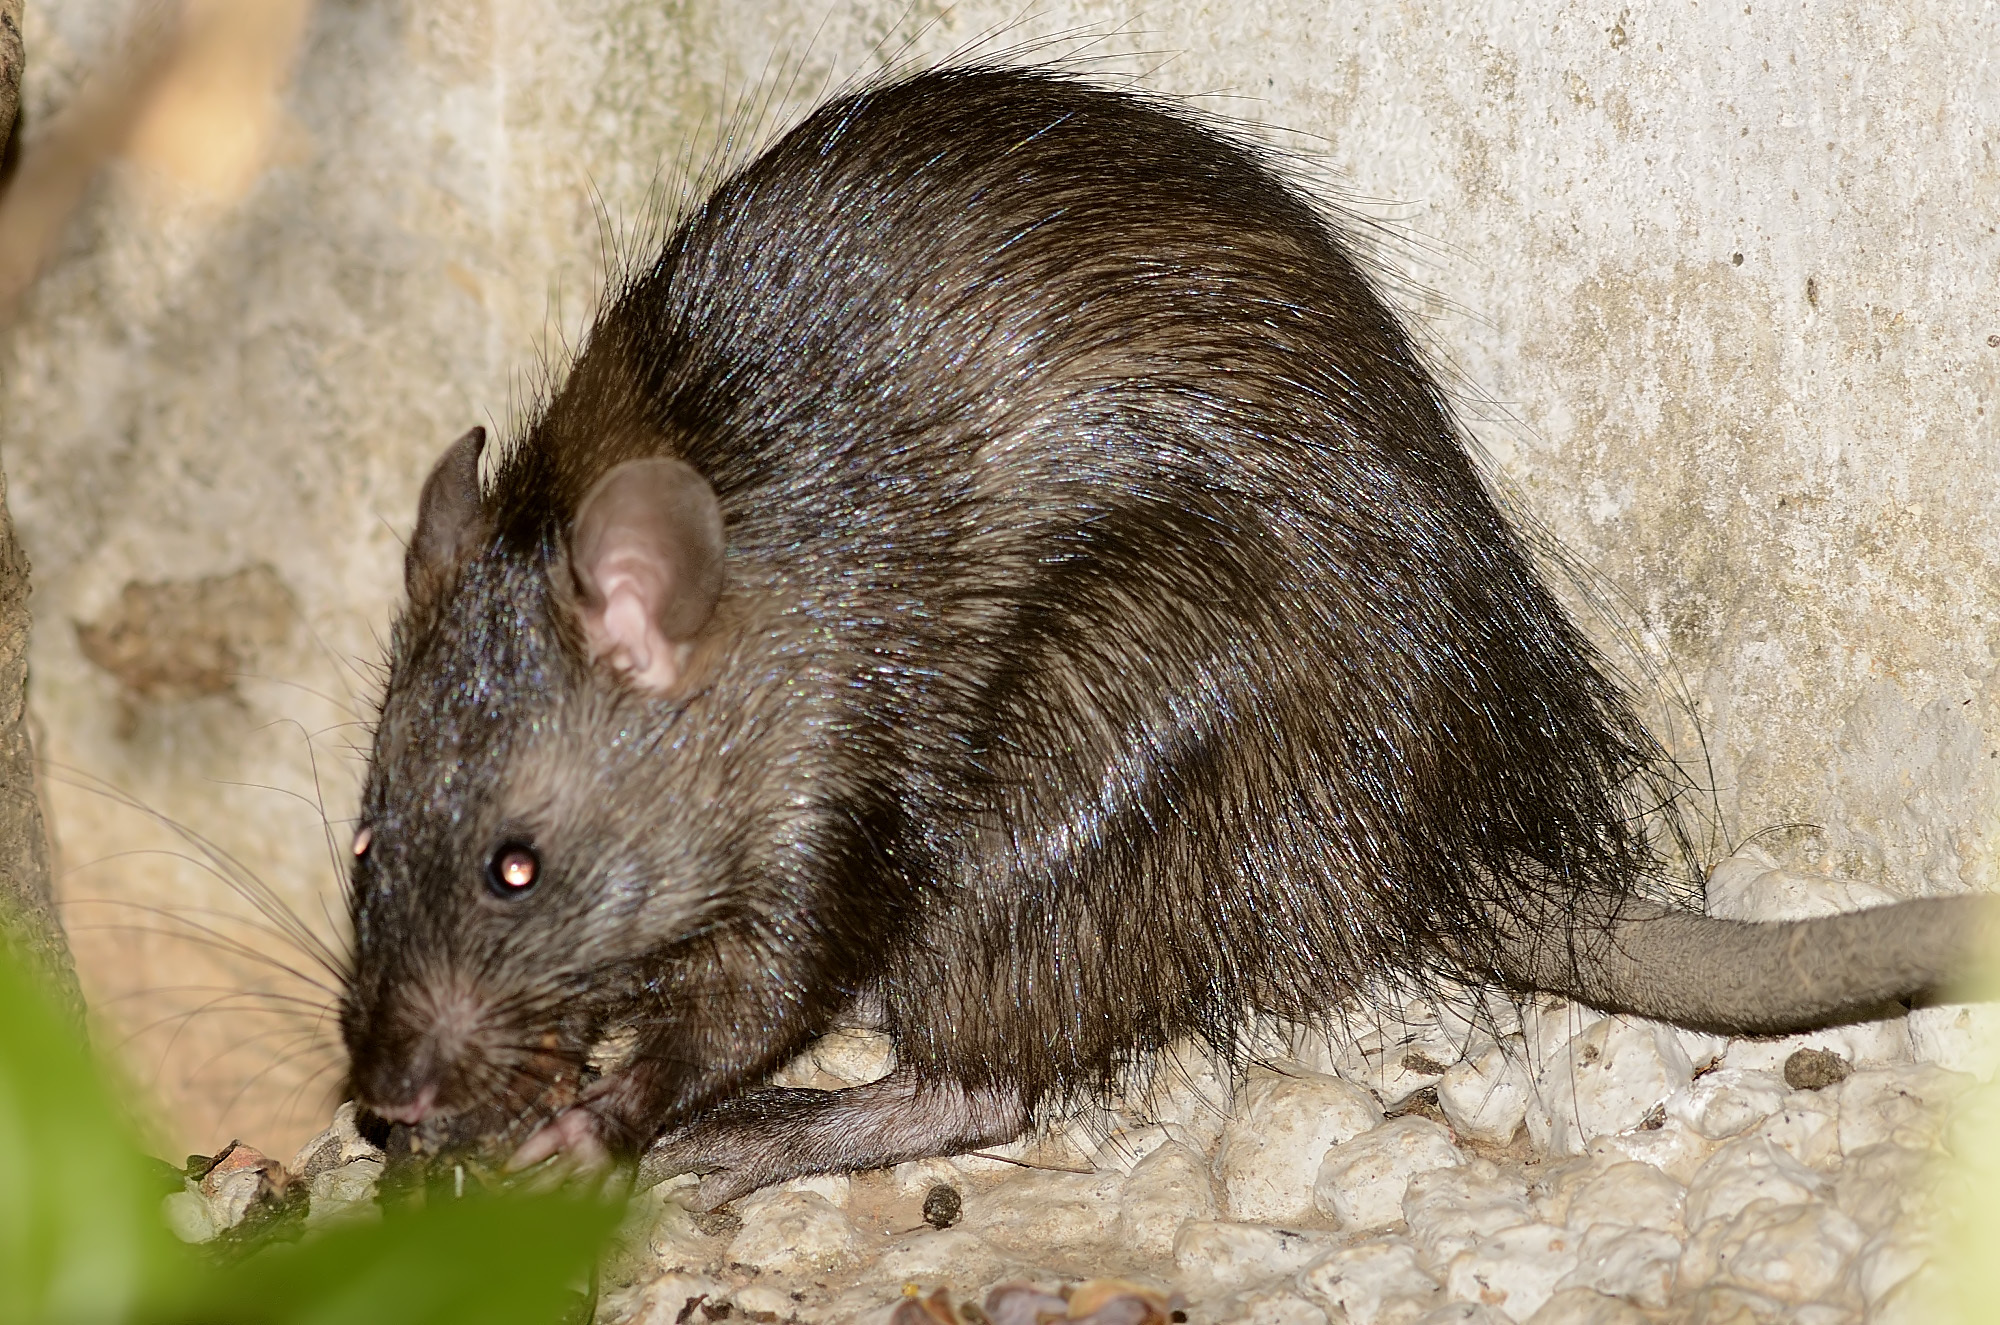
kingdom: Animalia
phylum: Chordata
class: Mammalia
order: Rodentia
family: Muridae
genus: Bandicota
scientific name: Bandicota indica
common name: Greater bandicoot rat
